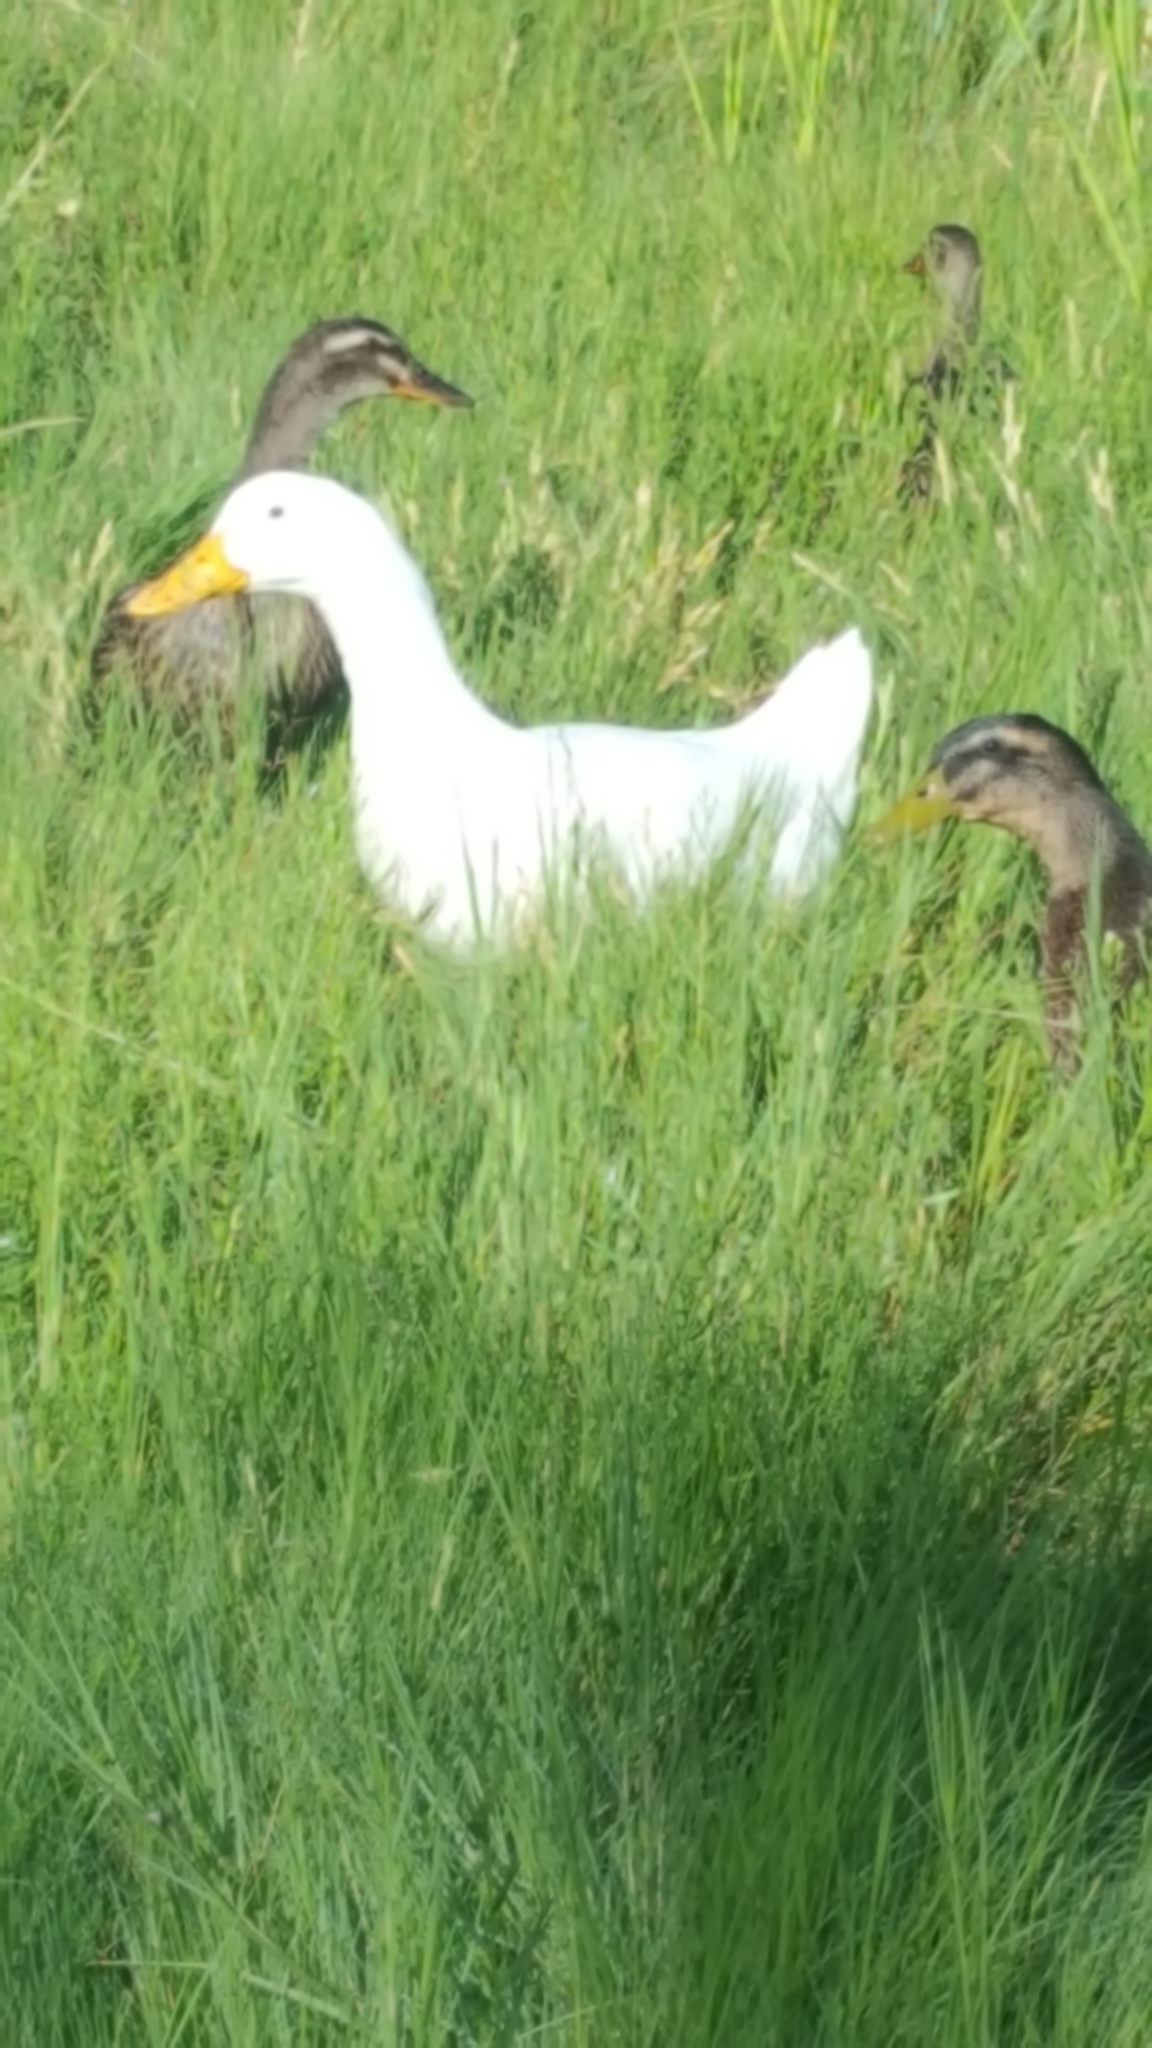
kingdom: Animalia
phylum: Chordata
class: Aves
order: Anseriformes
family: Anatidae
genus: Anas
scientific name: Anas platyrhynchos
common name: Mallard
